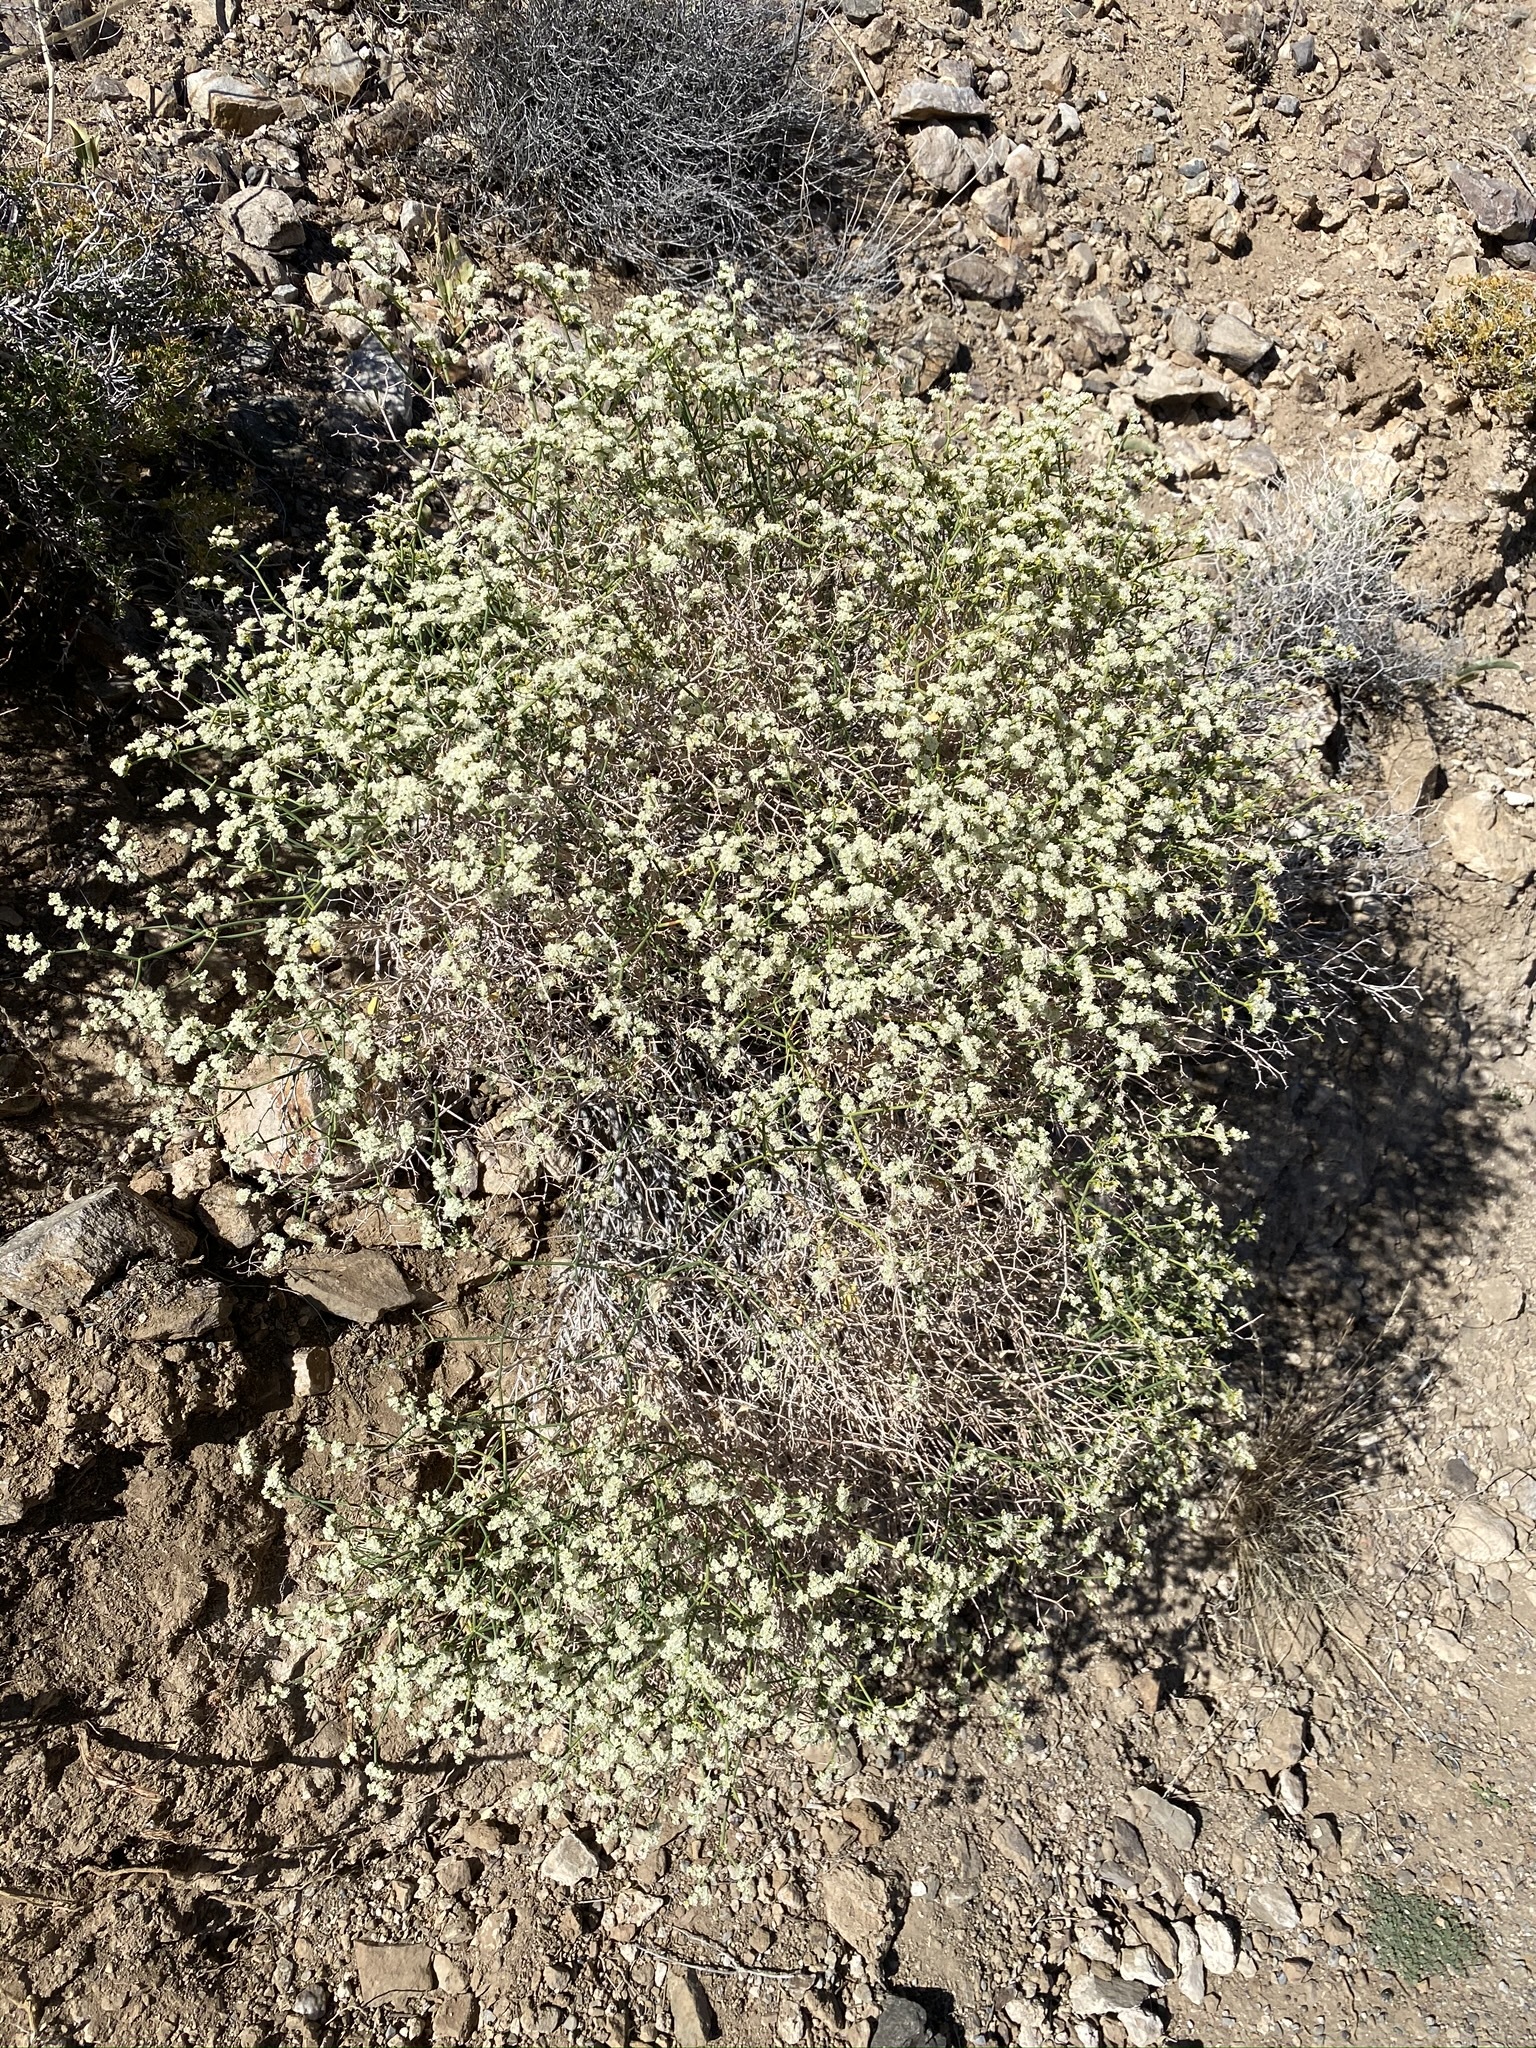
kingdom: Plantae
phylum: Tracheophyta
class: Magnoliopsida
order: Caryophyllales
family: Polygonaceae
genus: Eriogonum
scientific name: Eriogonum heermannii
